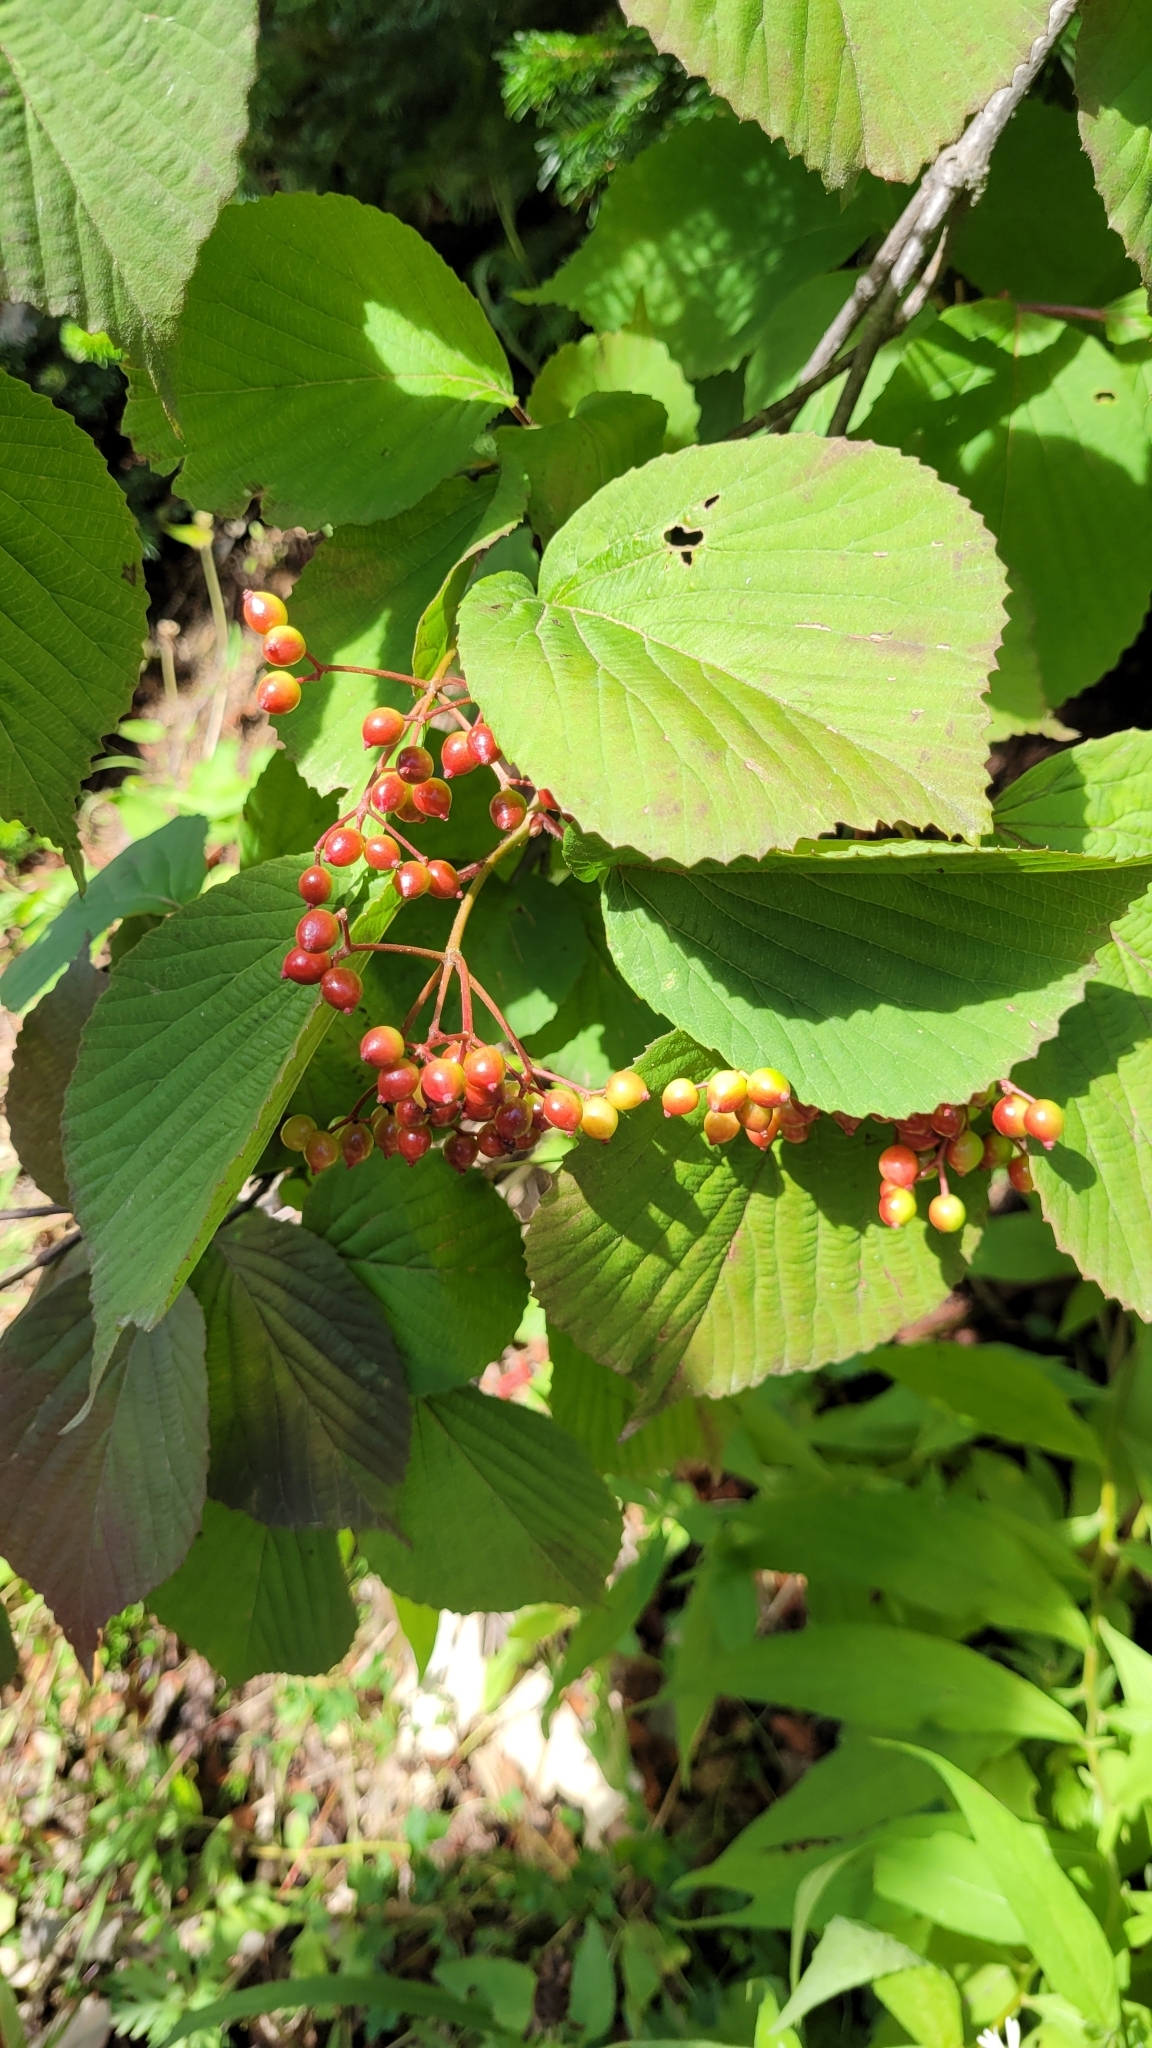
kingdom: Plantae
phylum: Tracheophyta
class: Magnoliopsida
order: Dipsacales
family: Viburnaceae
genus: Viburnum
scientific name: Viburnum wrightii
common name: Wright's viburnum
